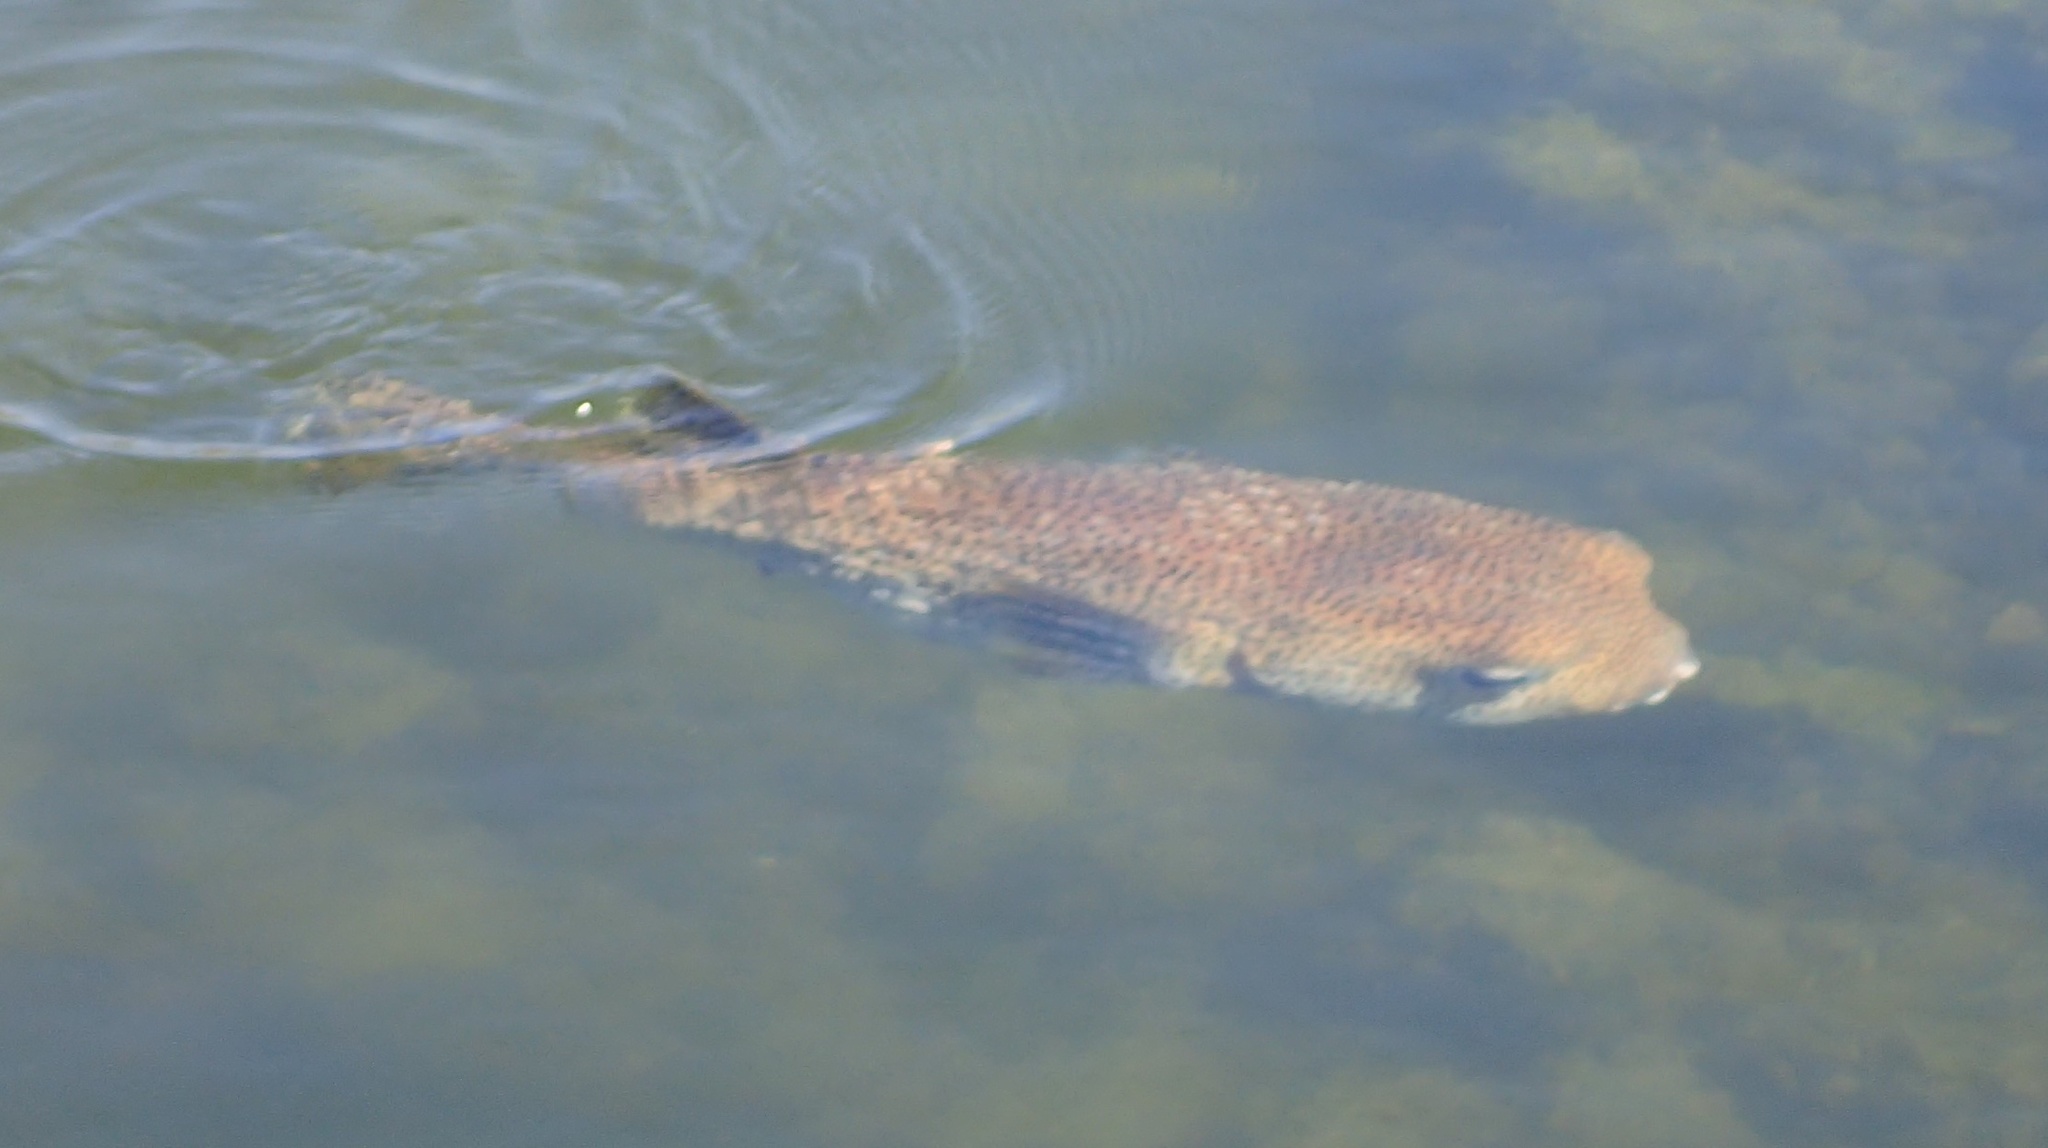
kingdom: Animalia
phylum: Chordata
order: Tetraodontiformes
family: Diodontidae
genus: Diodon
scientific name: Diodon hystrix
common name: Giant porcupinefish
